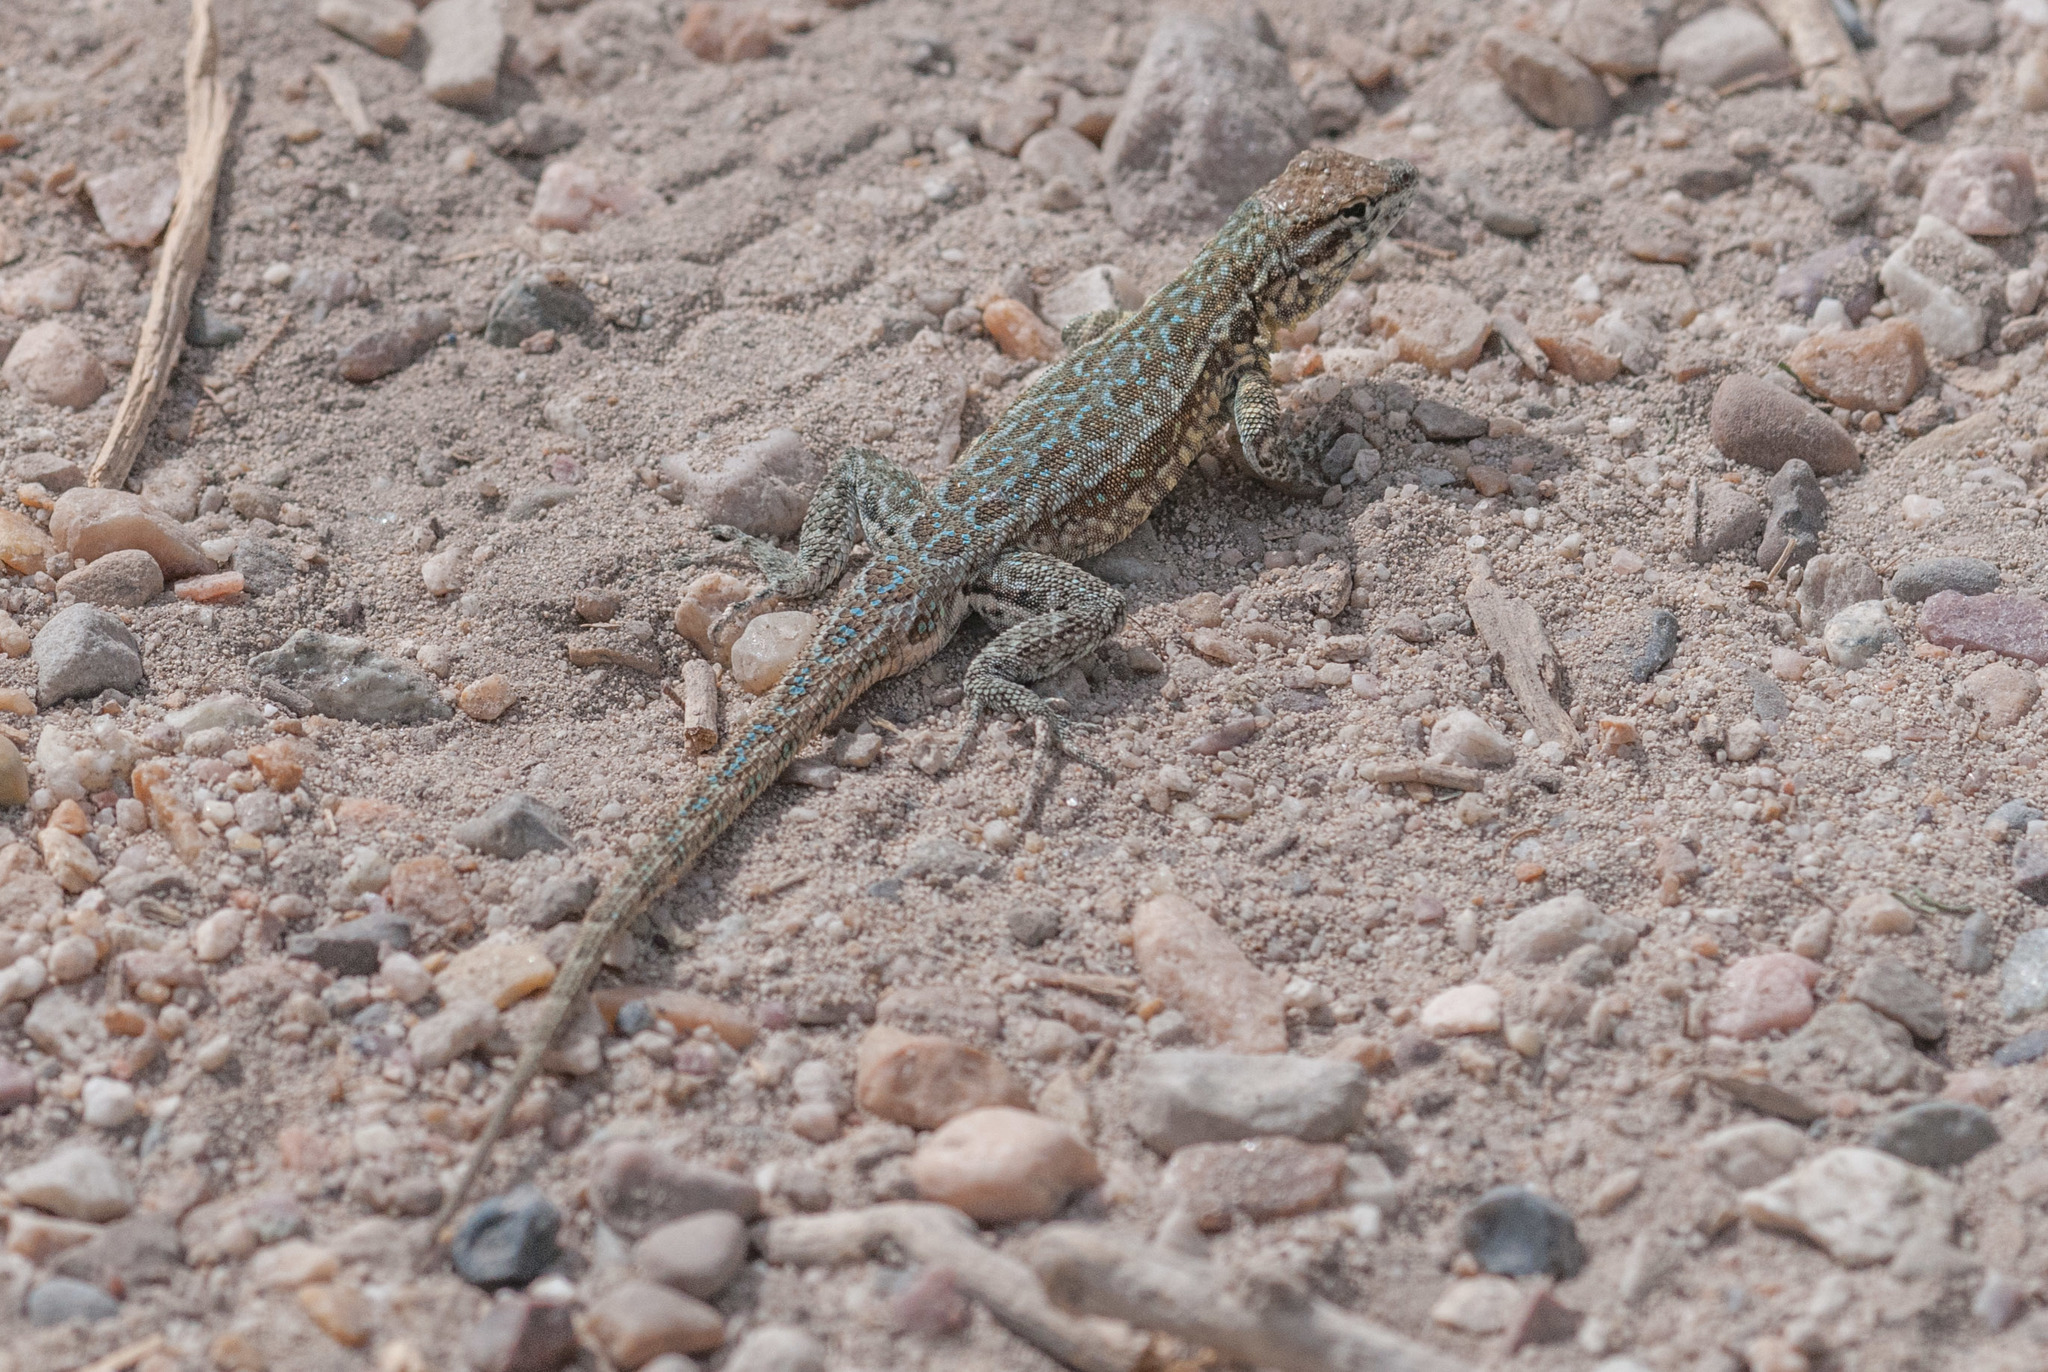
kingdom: Animalia
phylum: Chordata
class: Squamata
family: Phrynosomatidae
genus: Uta
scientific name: Uta stansburiana
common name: Side-blotched lizard
